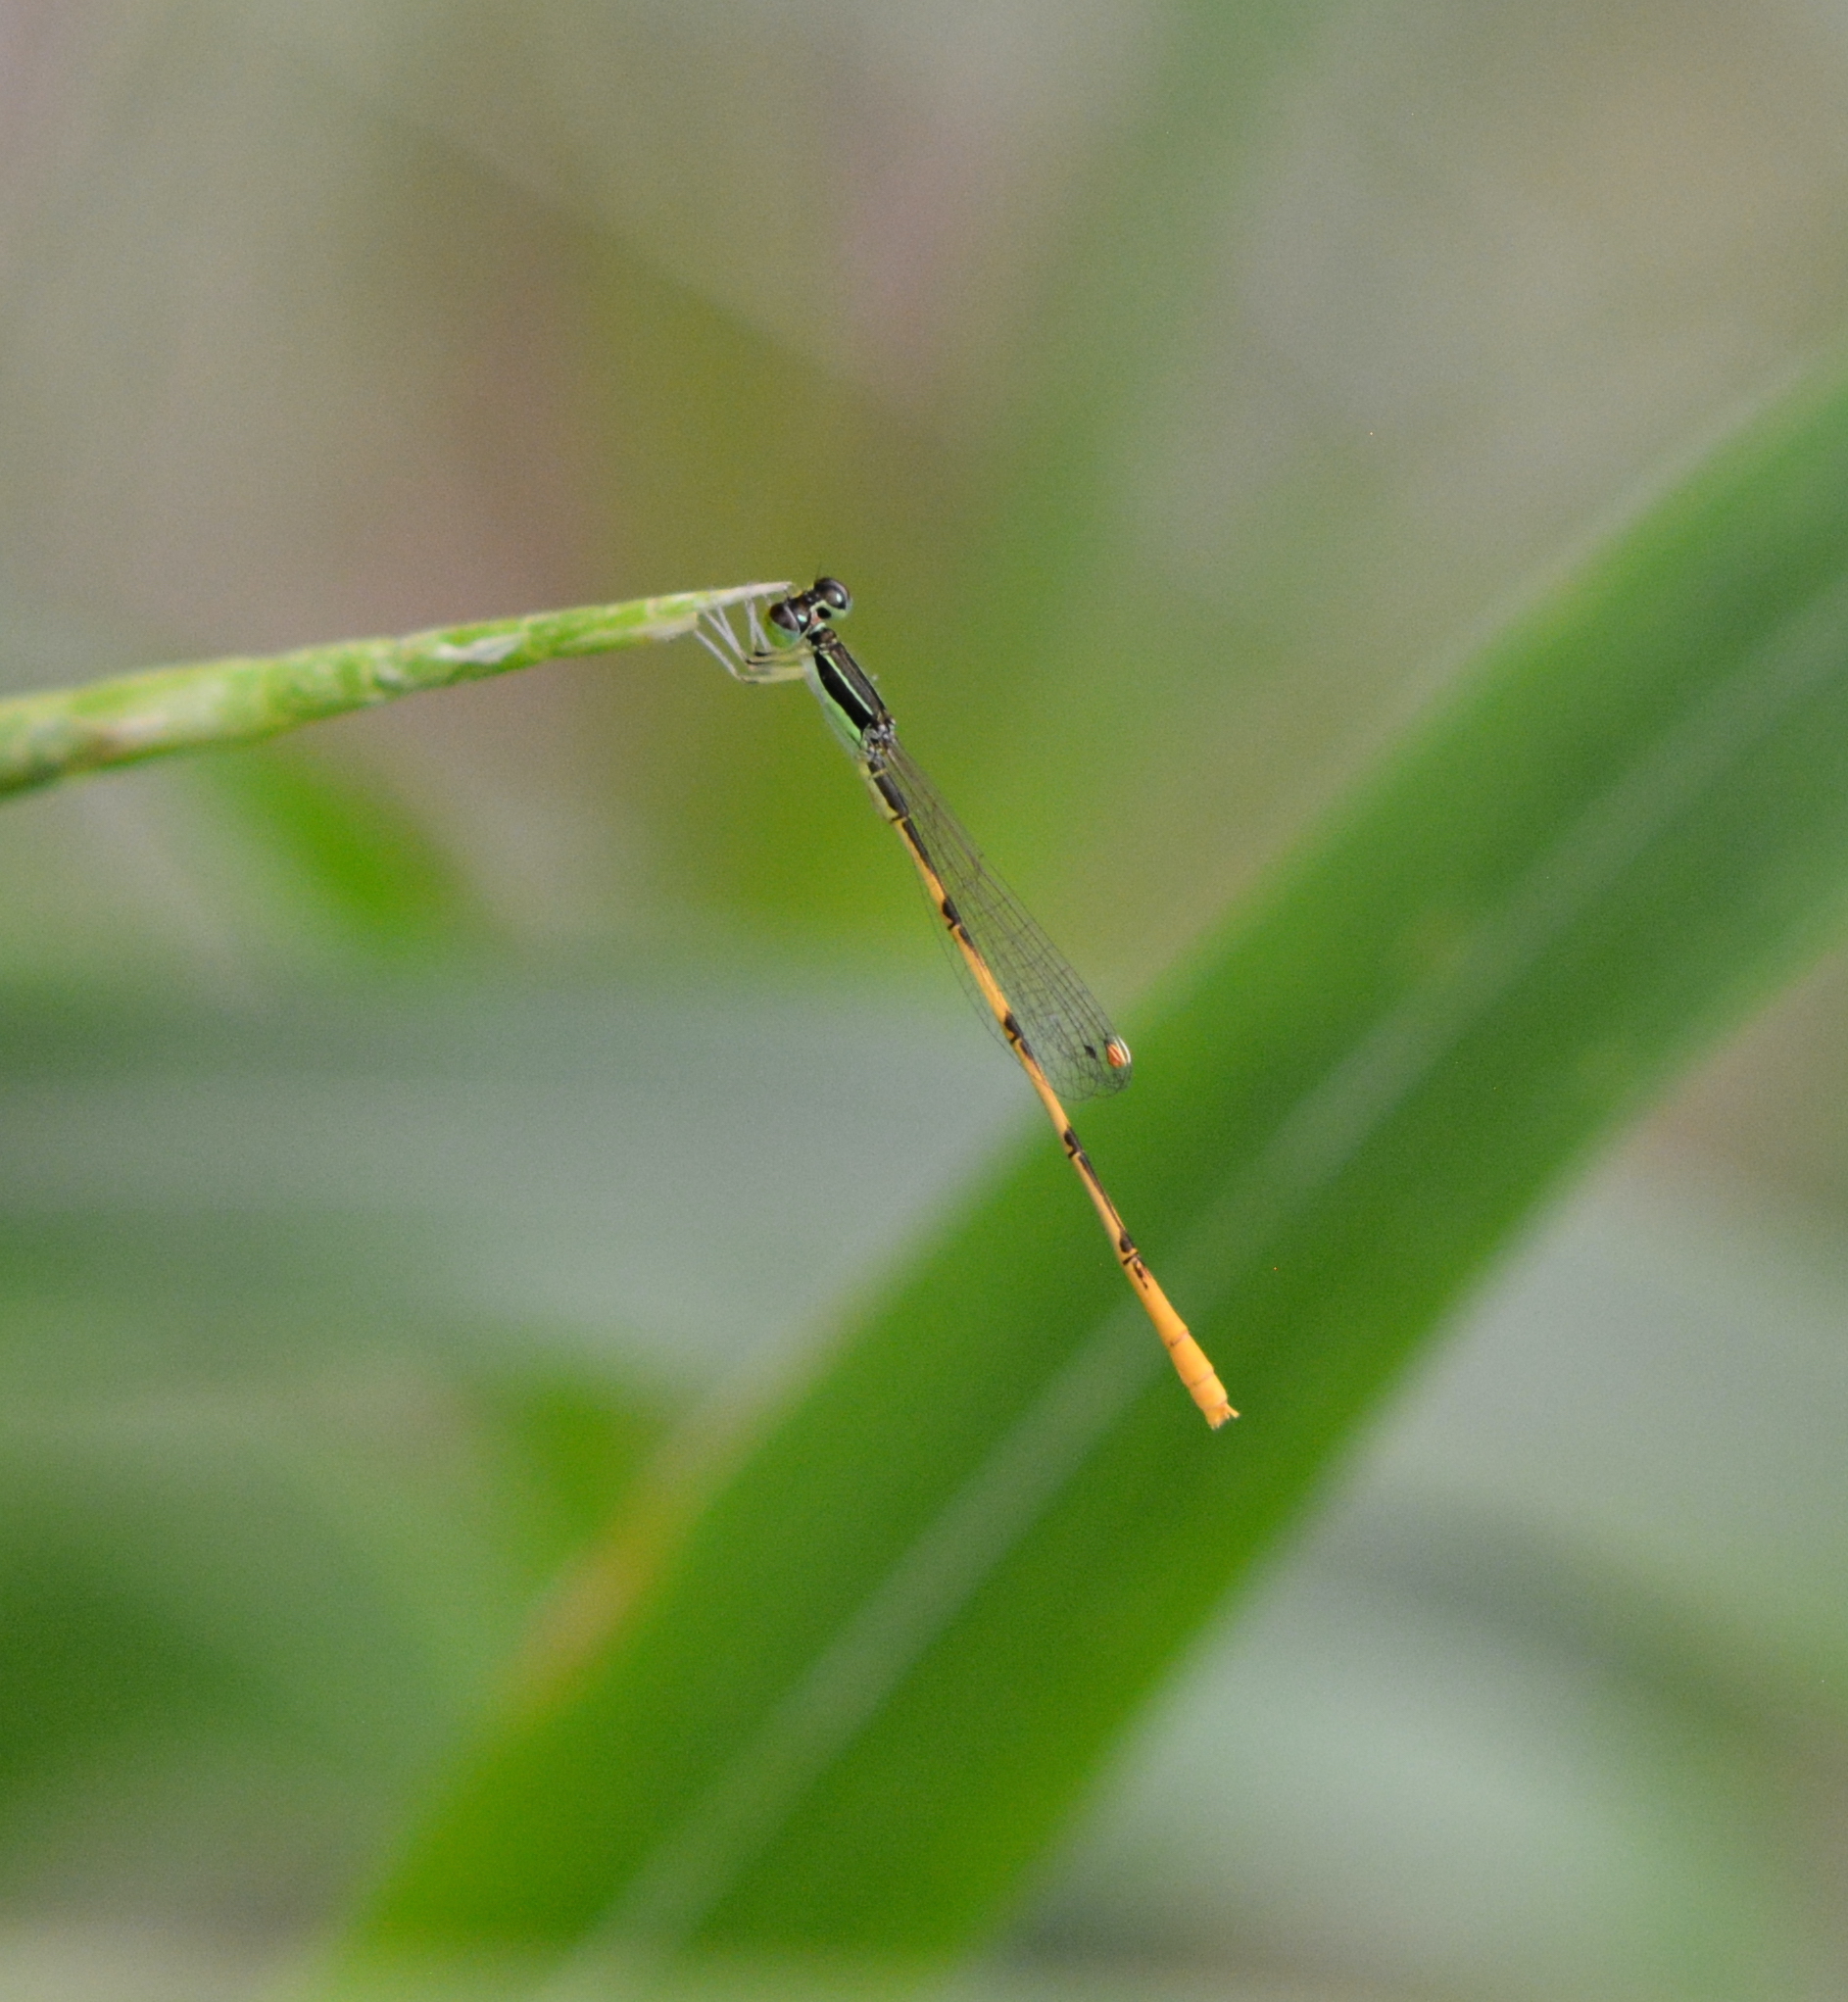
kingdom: Animalia
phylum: Arthropoda
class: Insecta
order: Odonata
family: Coenagrionidae
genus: Ischnura
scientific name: Ischnura hastata
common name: Citrine forktail
